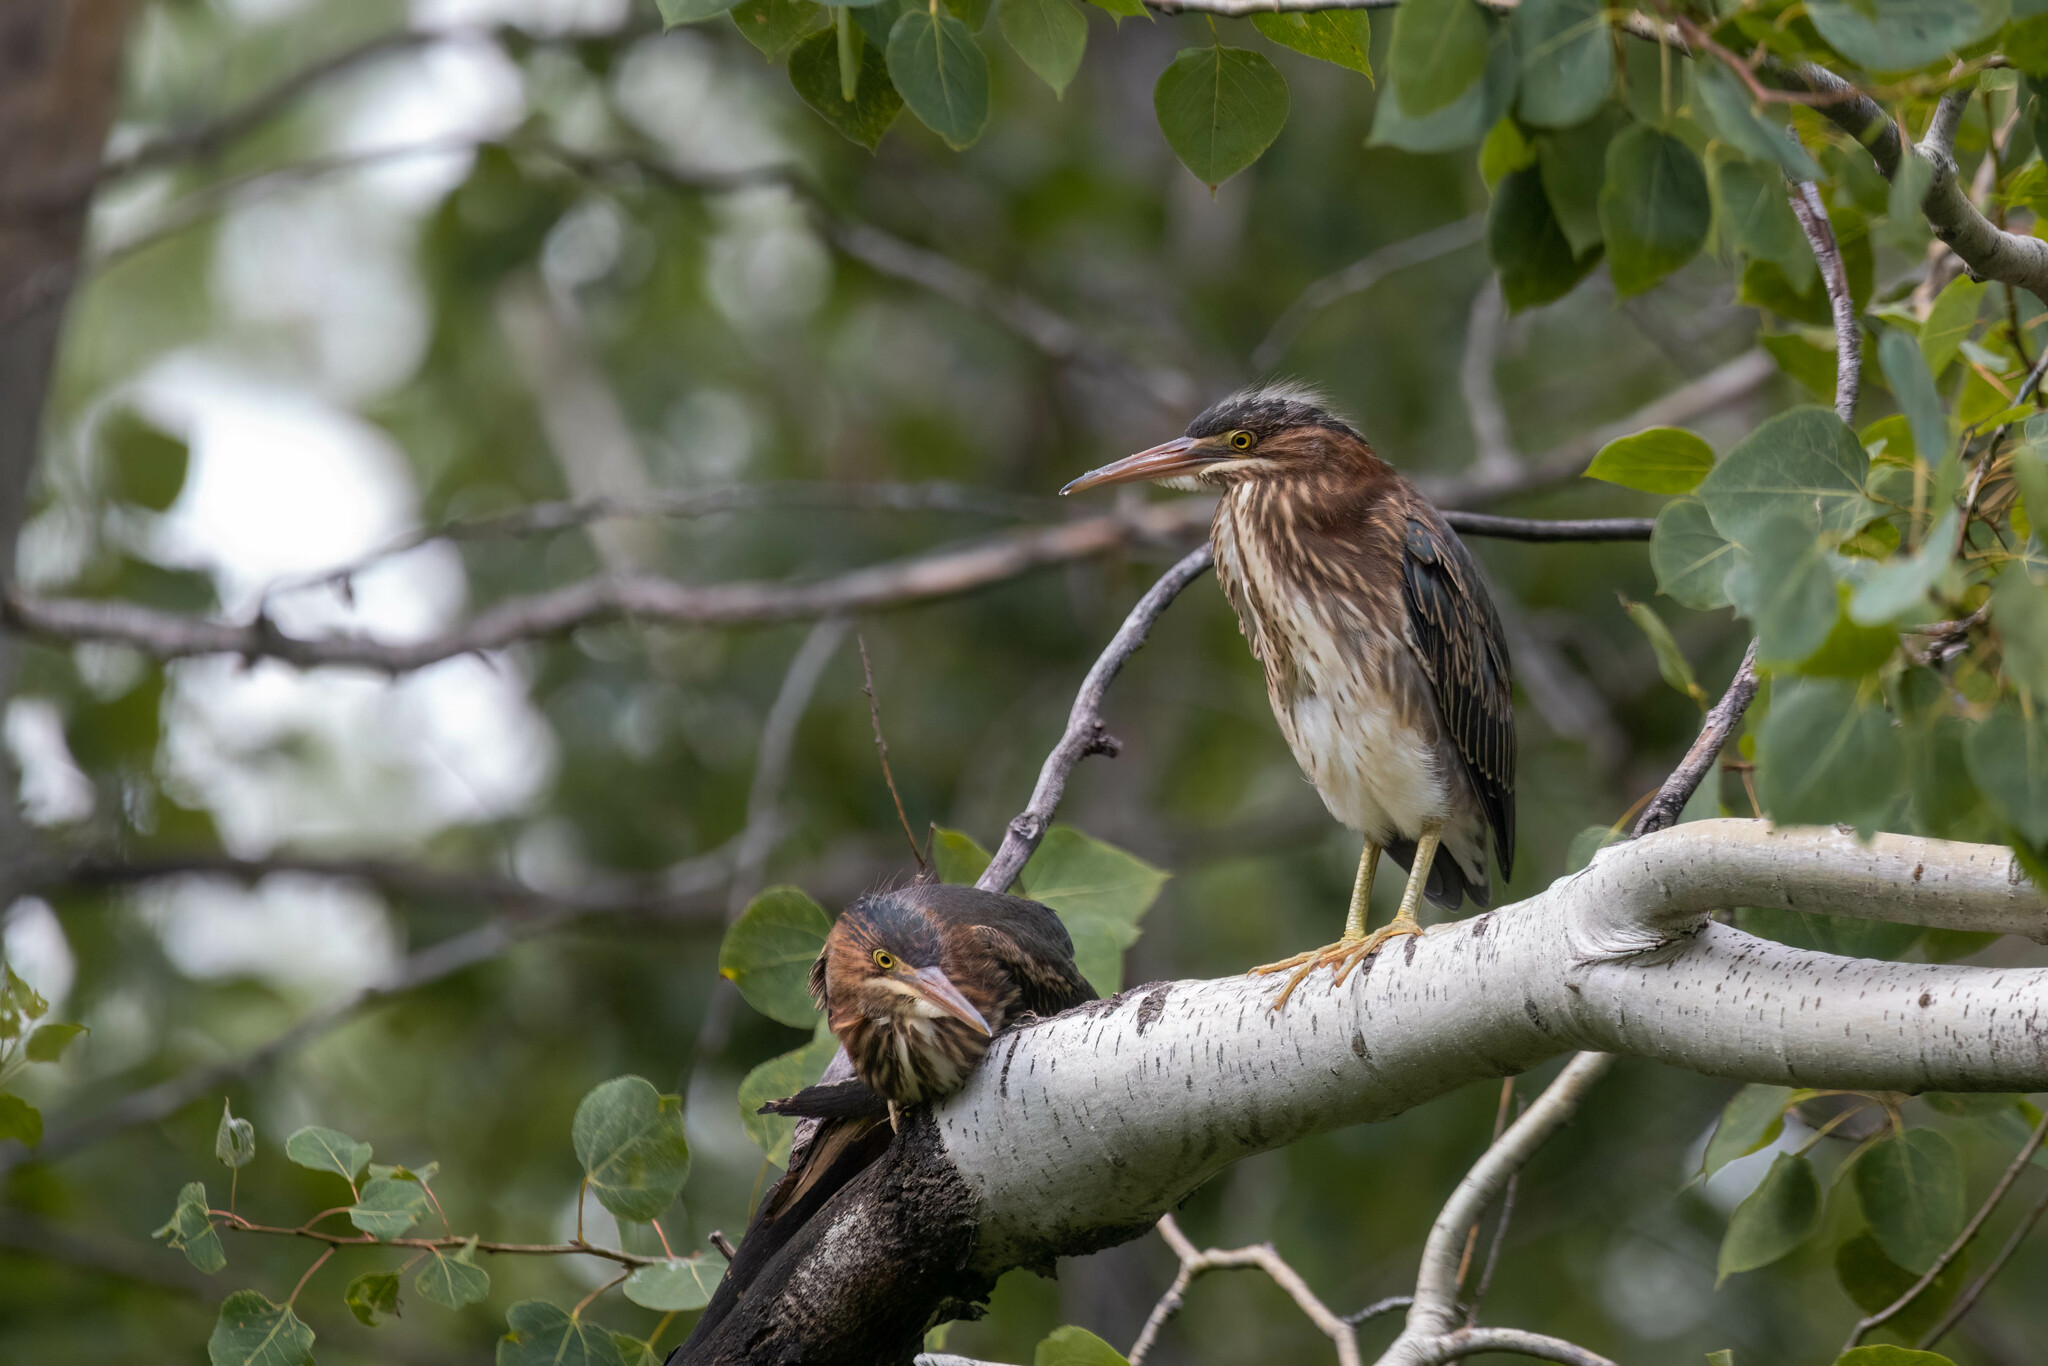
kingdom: Animalia
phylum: Chordata
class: Aves
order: Pelecaniformes
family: Ardeidae
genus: Butorides
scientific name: Butorides virescens
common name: Green heron
